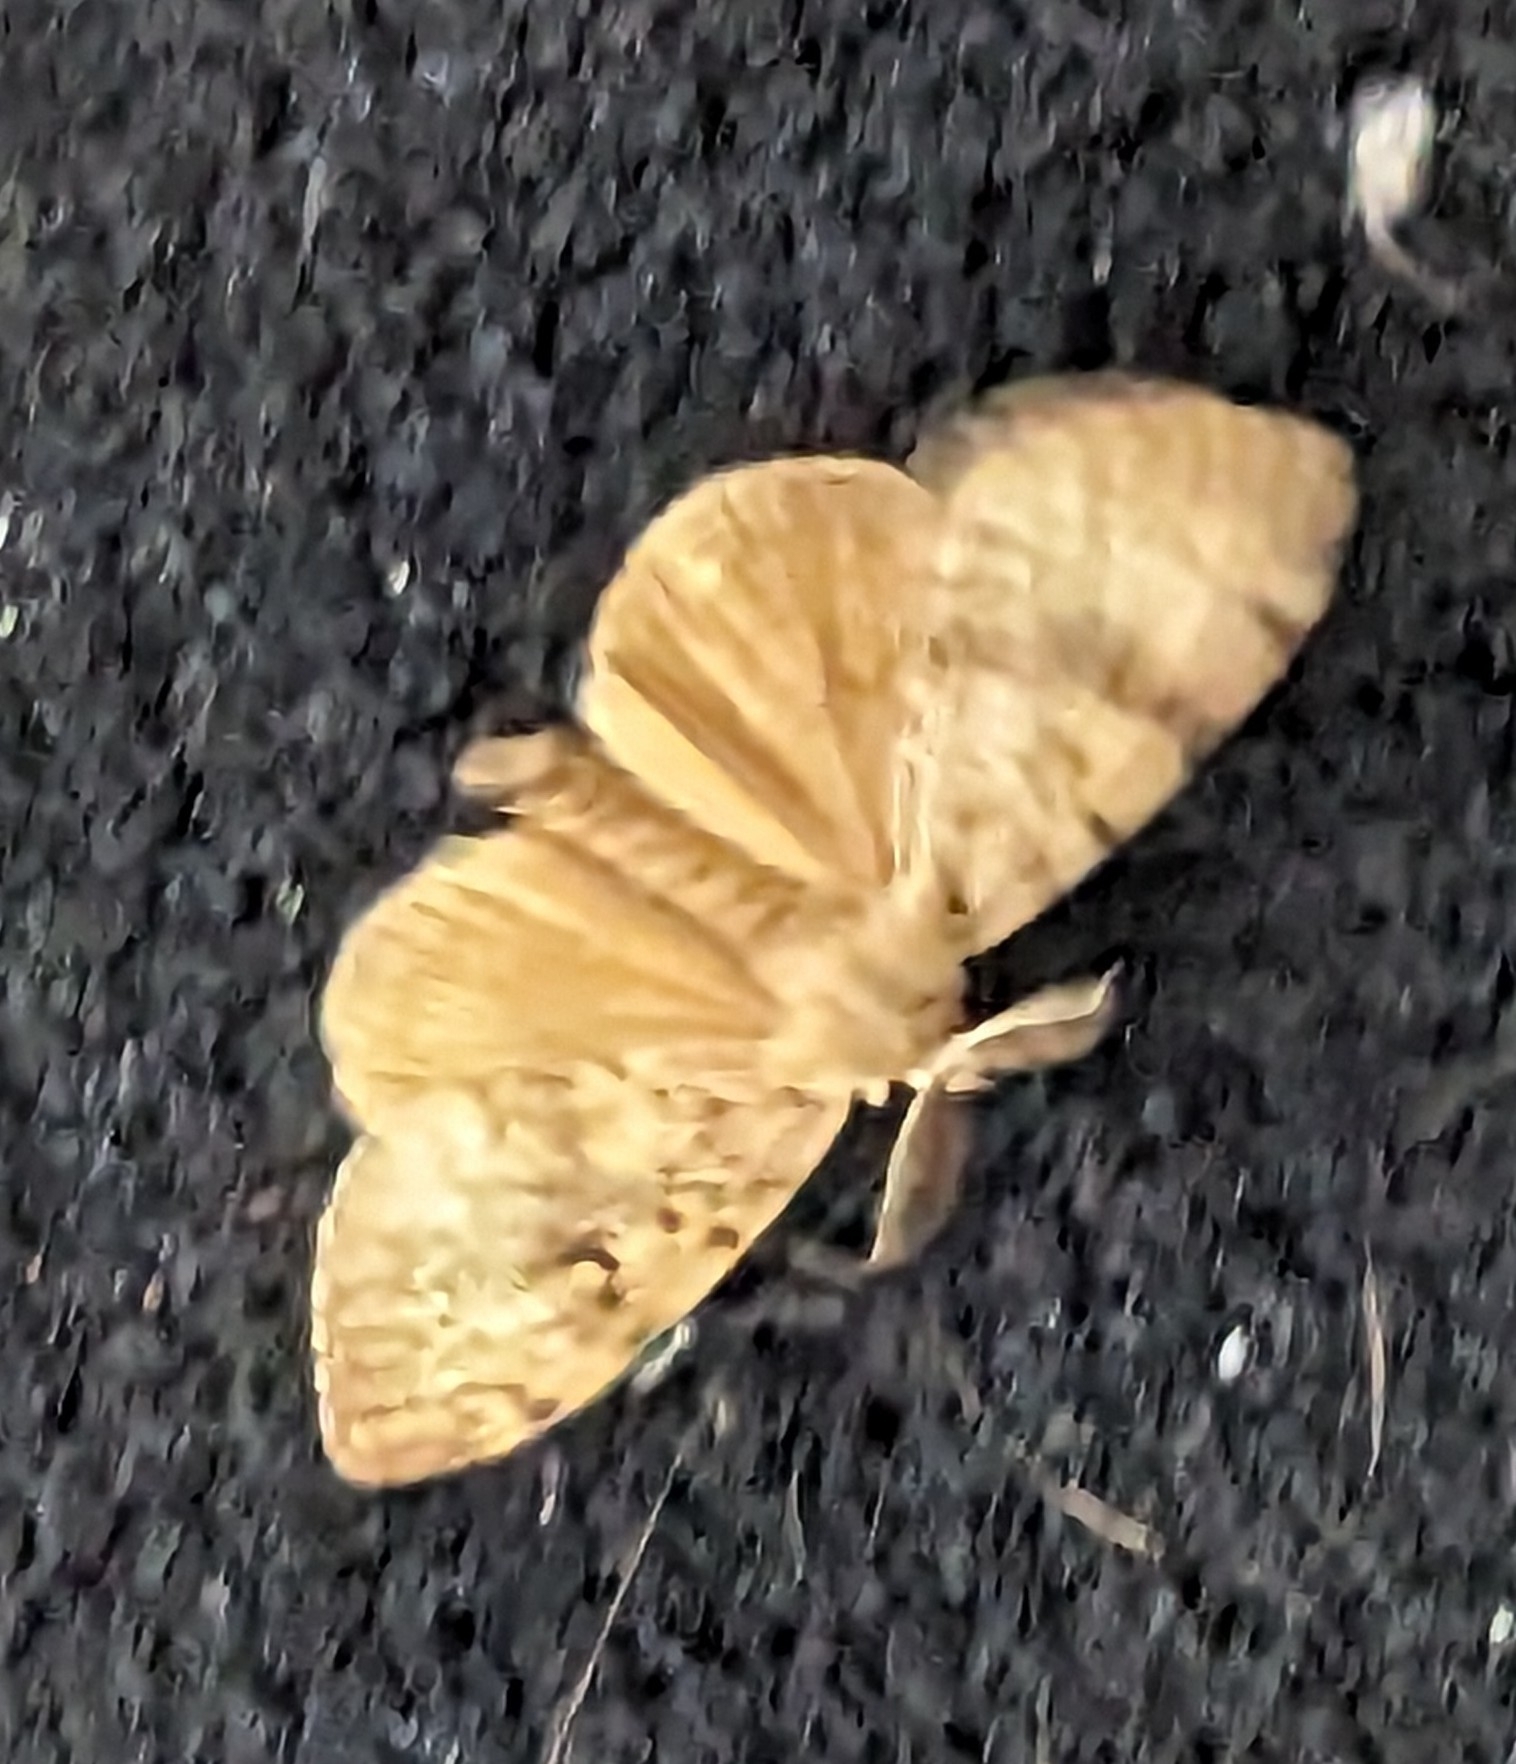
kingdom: Animalia
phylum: Arthropoda
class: Insecta
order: Lepidoptera
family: Erebidae
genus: Lymantria
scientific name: Lymantria dispar
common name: Gypsy moth
